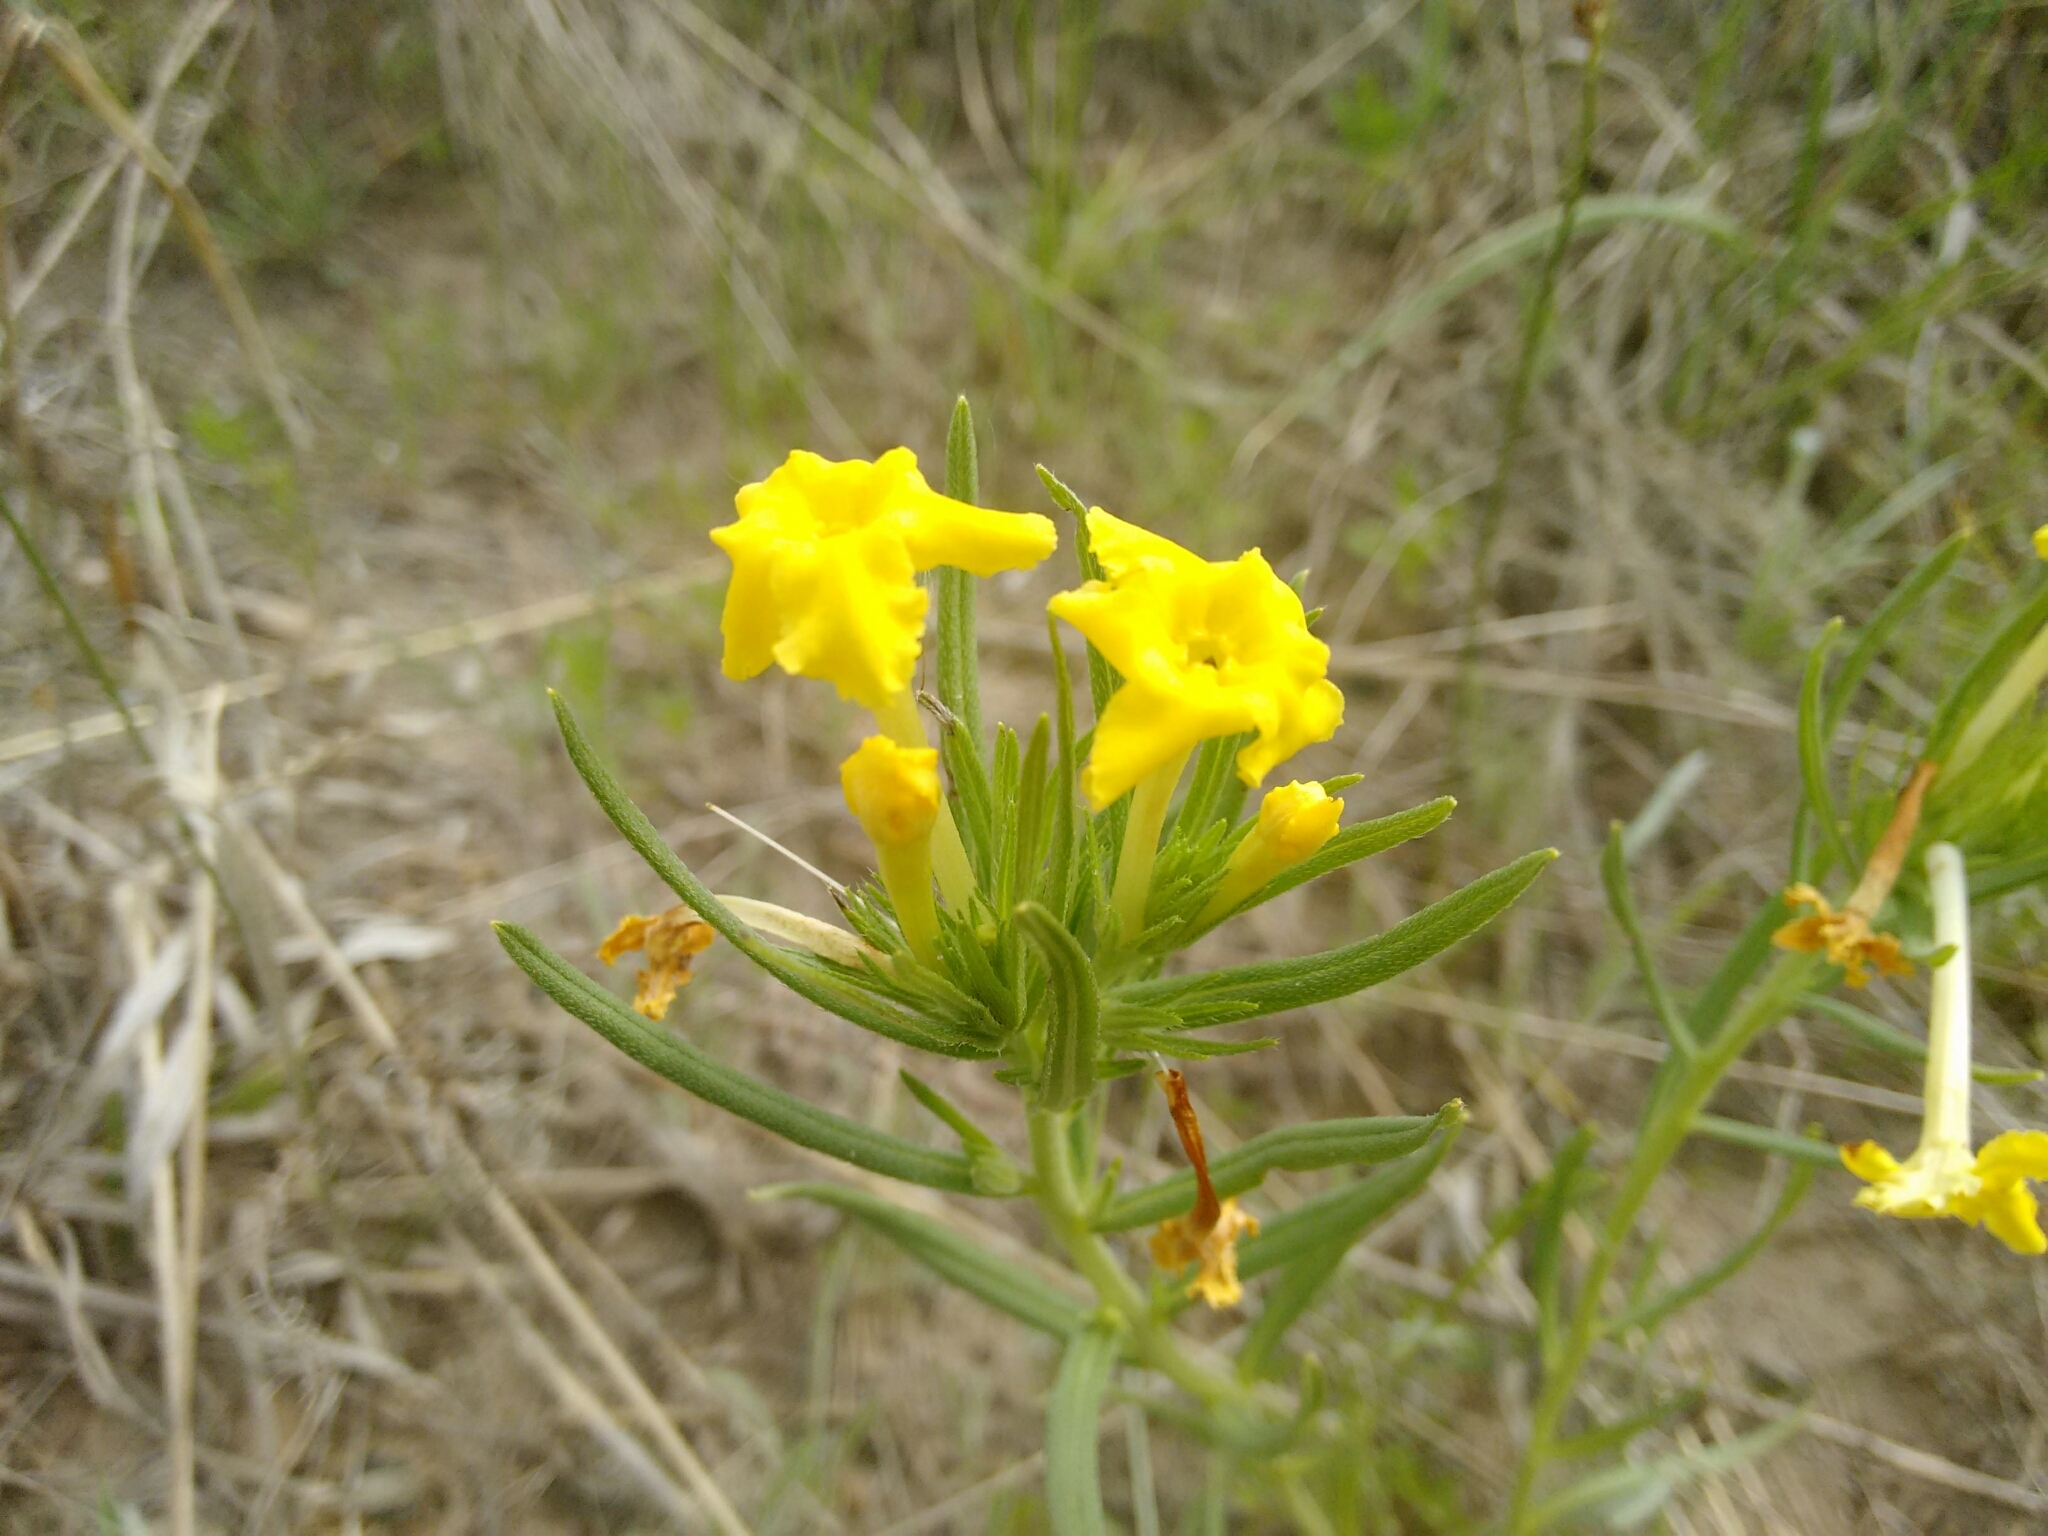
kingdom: Plantae
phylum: Tracheophyta
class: Magnoliopsida
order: Boraginales
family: Boraginaceae
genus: Lithospermum
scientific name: Lithospermum incisum
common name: Fringed gromwell
